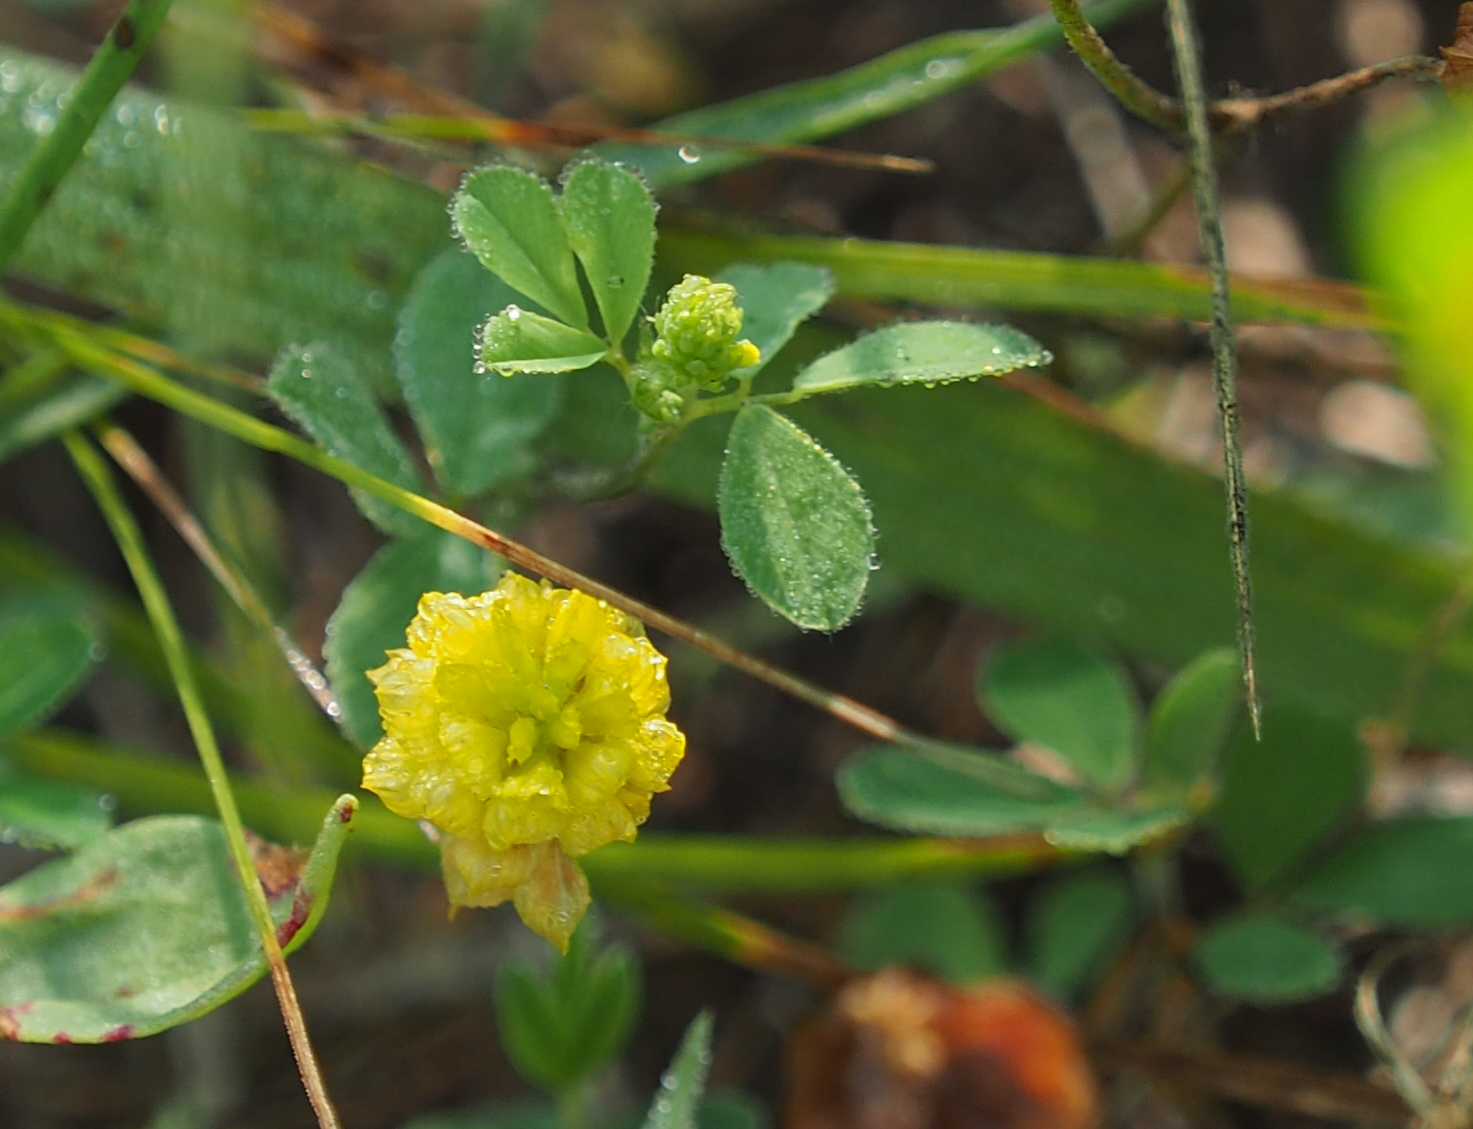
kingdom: Plantae
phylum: Tracheophyta
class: Magnoliopsida
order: Fabales
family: Fabaceae
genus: Trifolium
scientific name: Trifolium campestre
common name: Field clover
